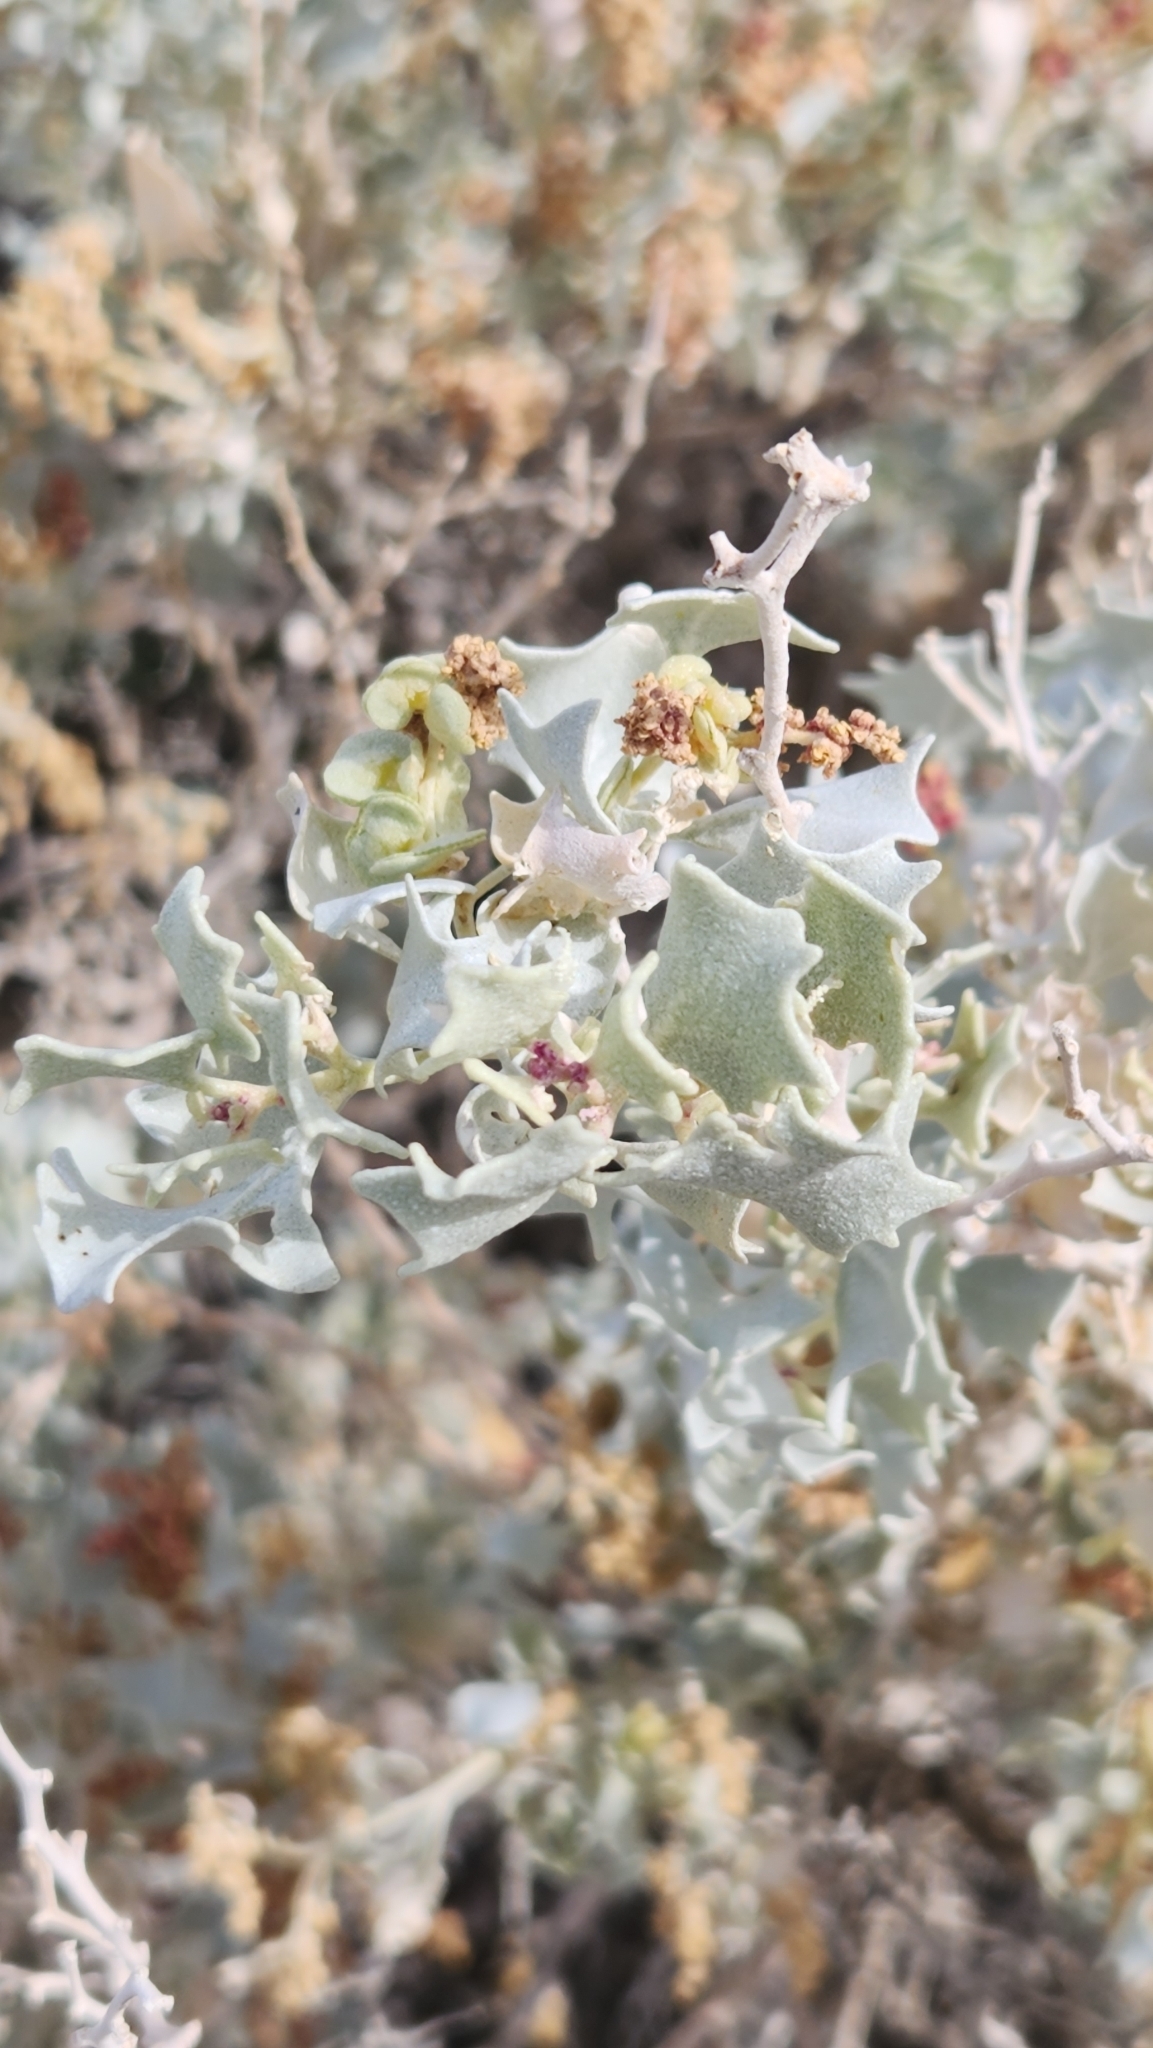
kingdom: Plantae
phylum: Tracheophyta
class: Magnoliopsida
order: Caryophyllales
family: Amaranthaceae
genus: Atriplex
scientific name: Atriplex hymenelytra
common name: Desert-holly
